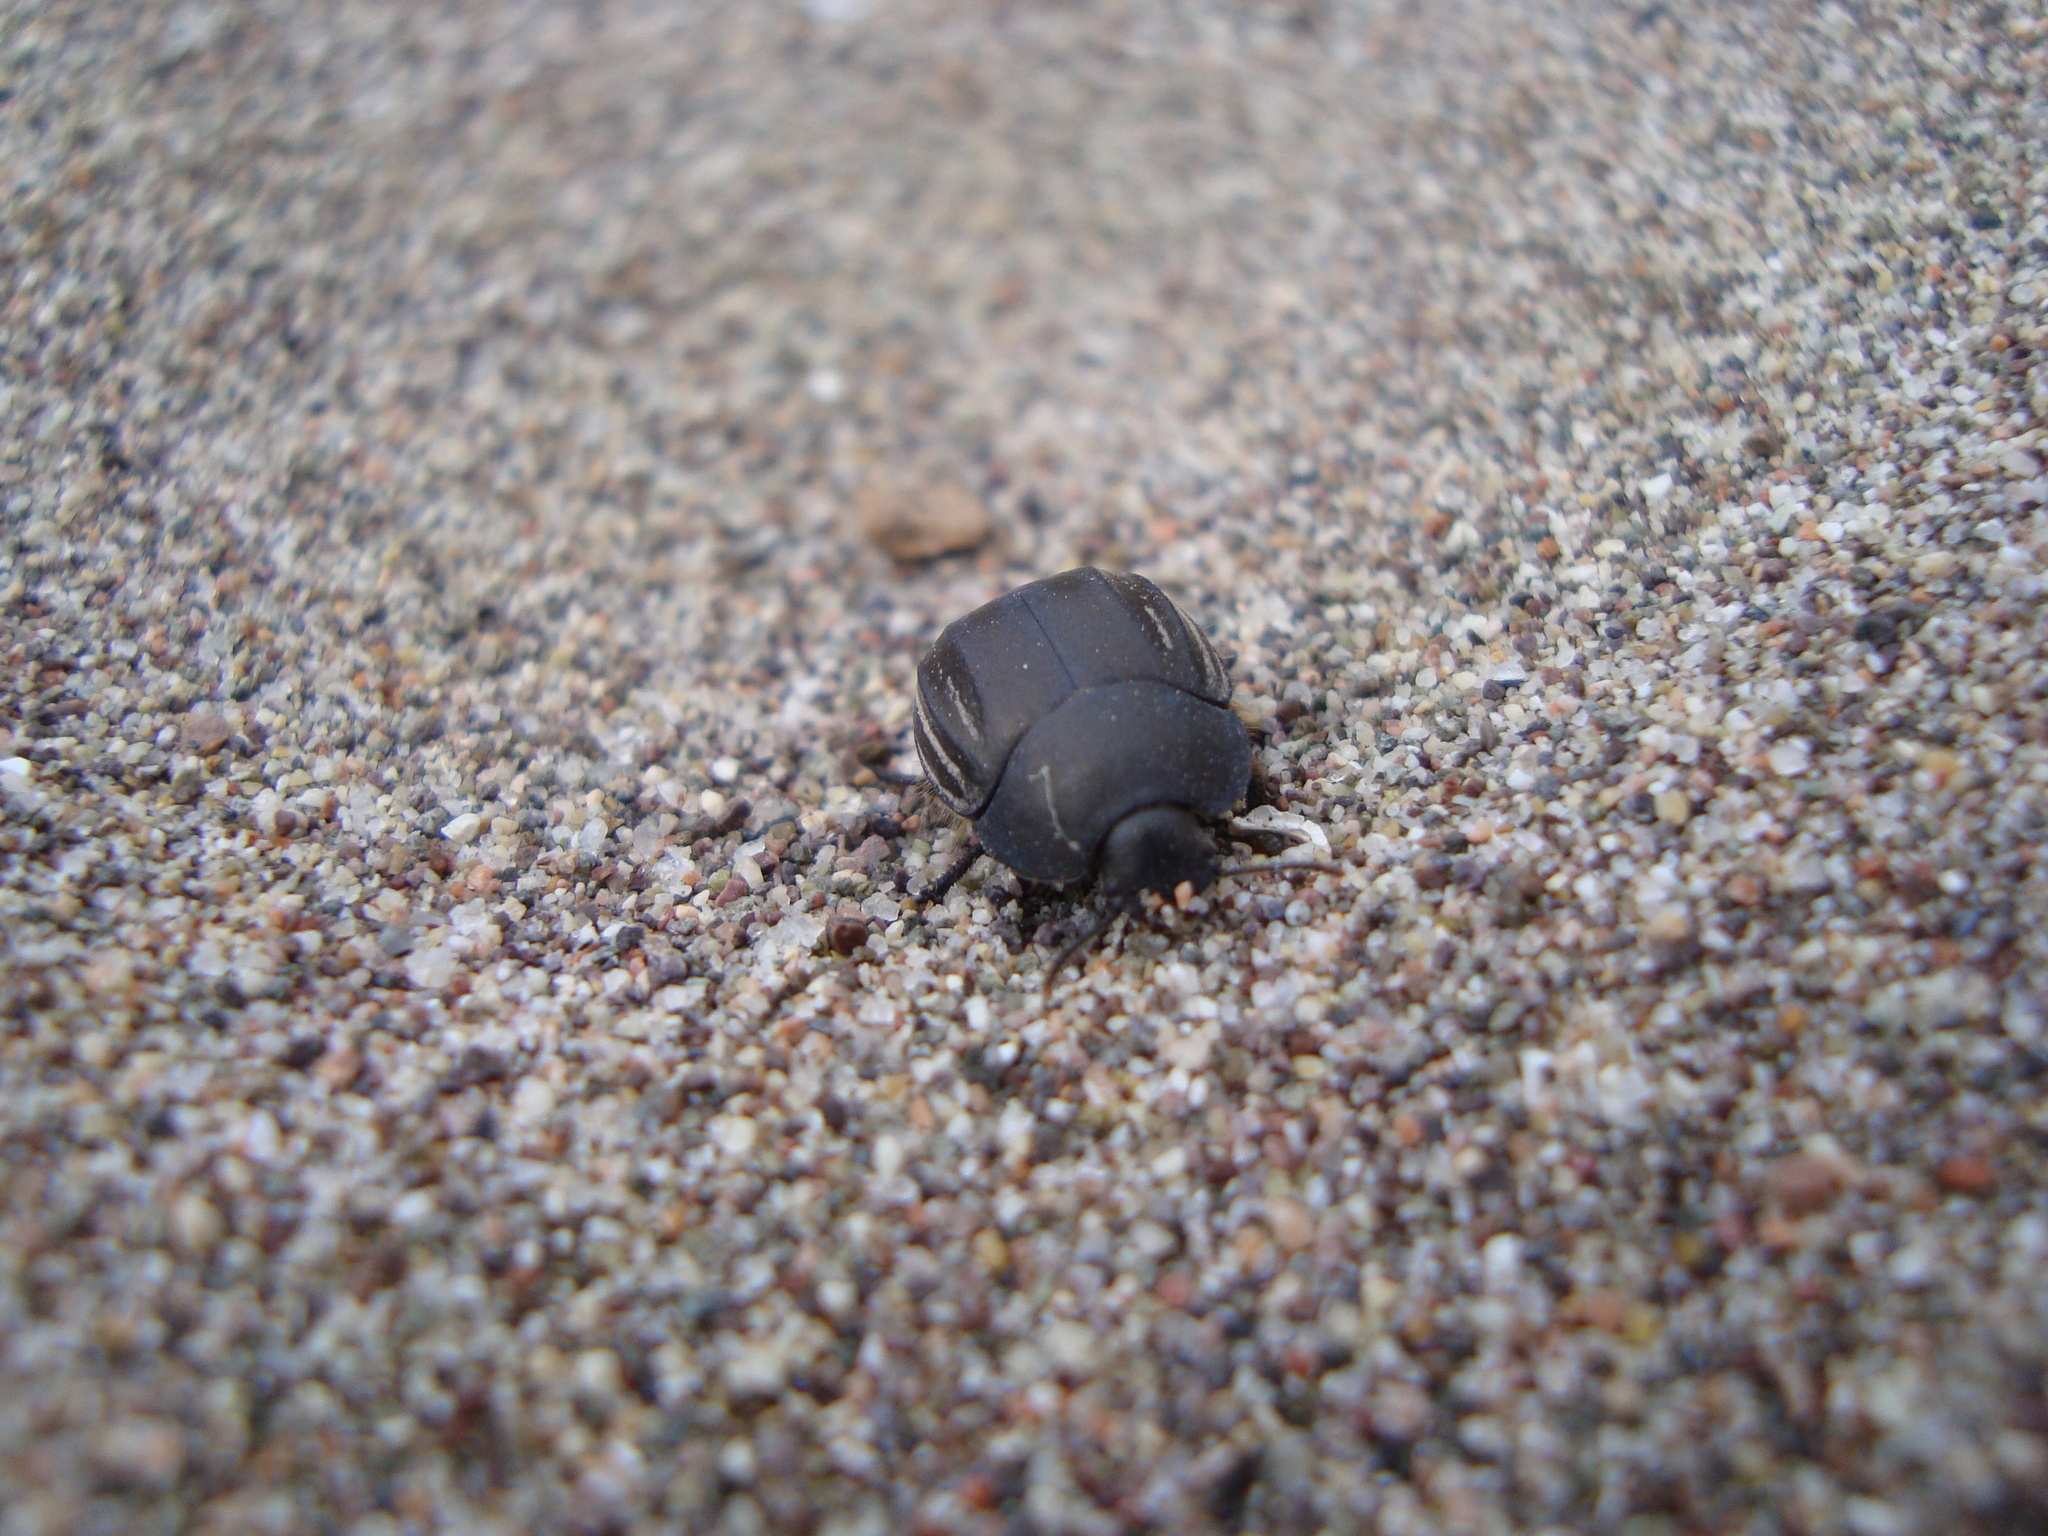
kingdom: Animalia
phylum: Arthropoda
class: Insecta
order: Coleoptera
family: Tenebrionidae
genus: Praocis
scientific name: Praocis spinolai
